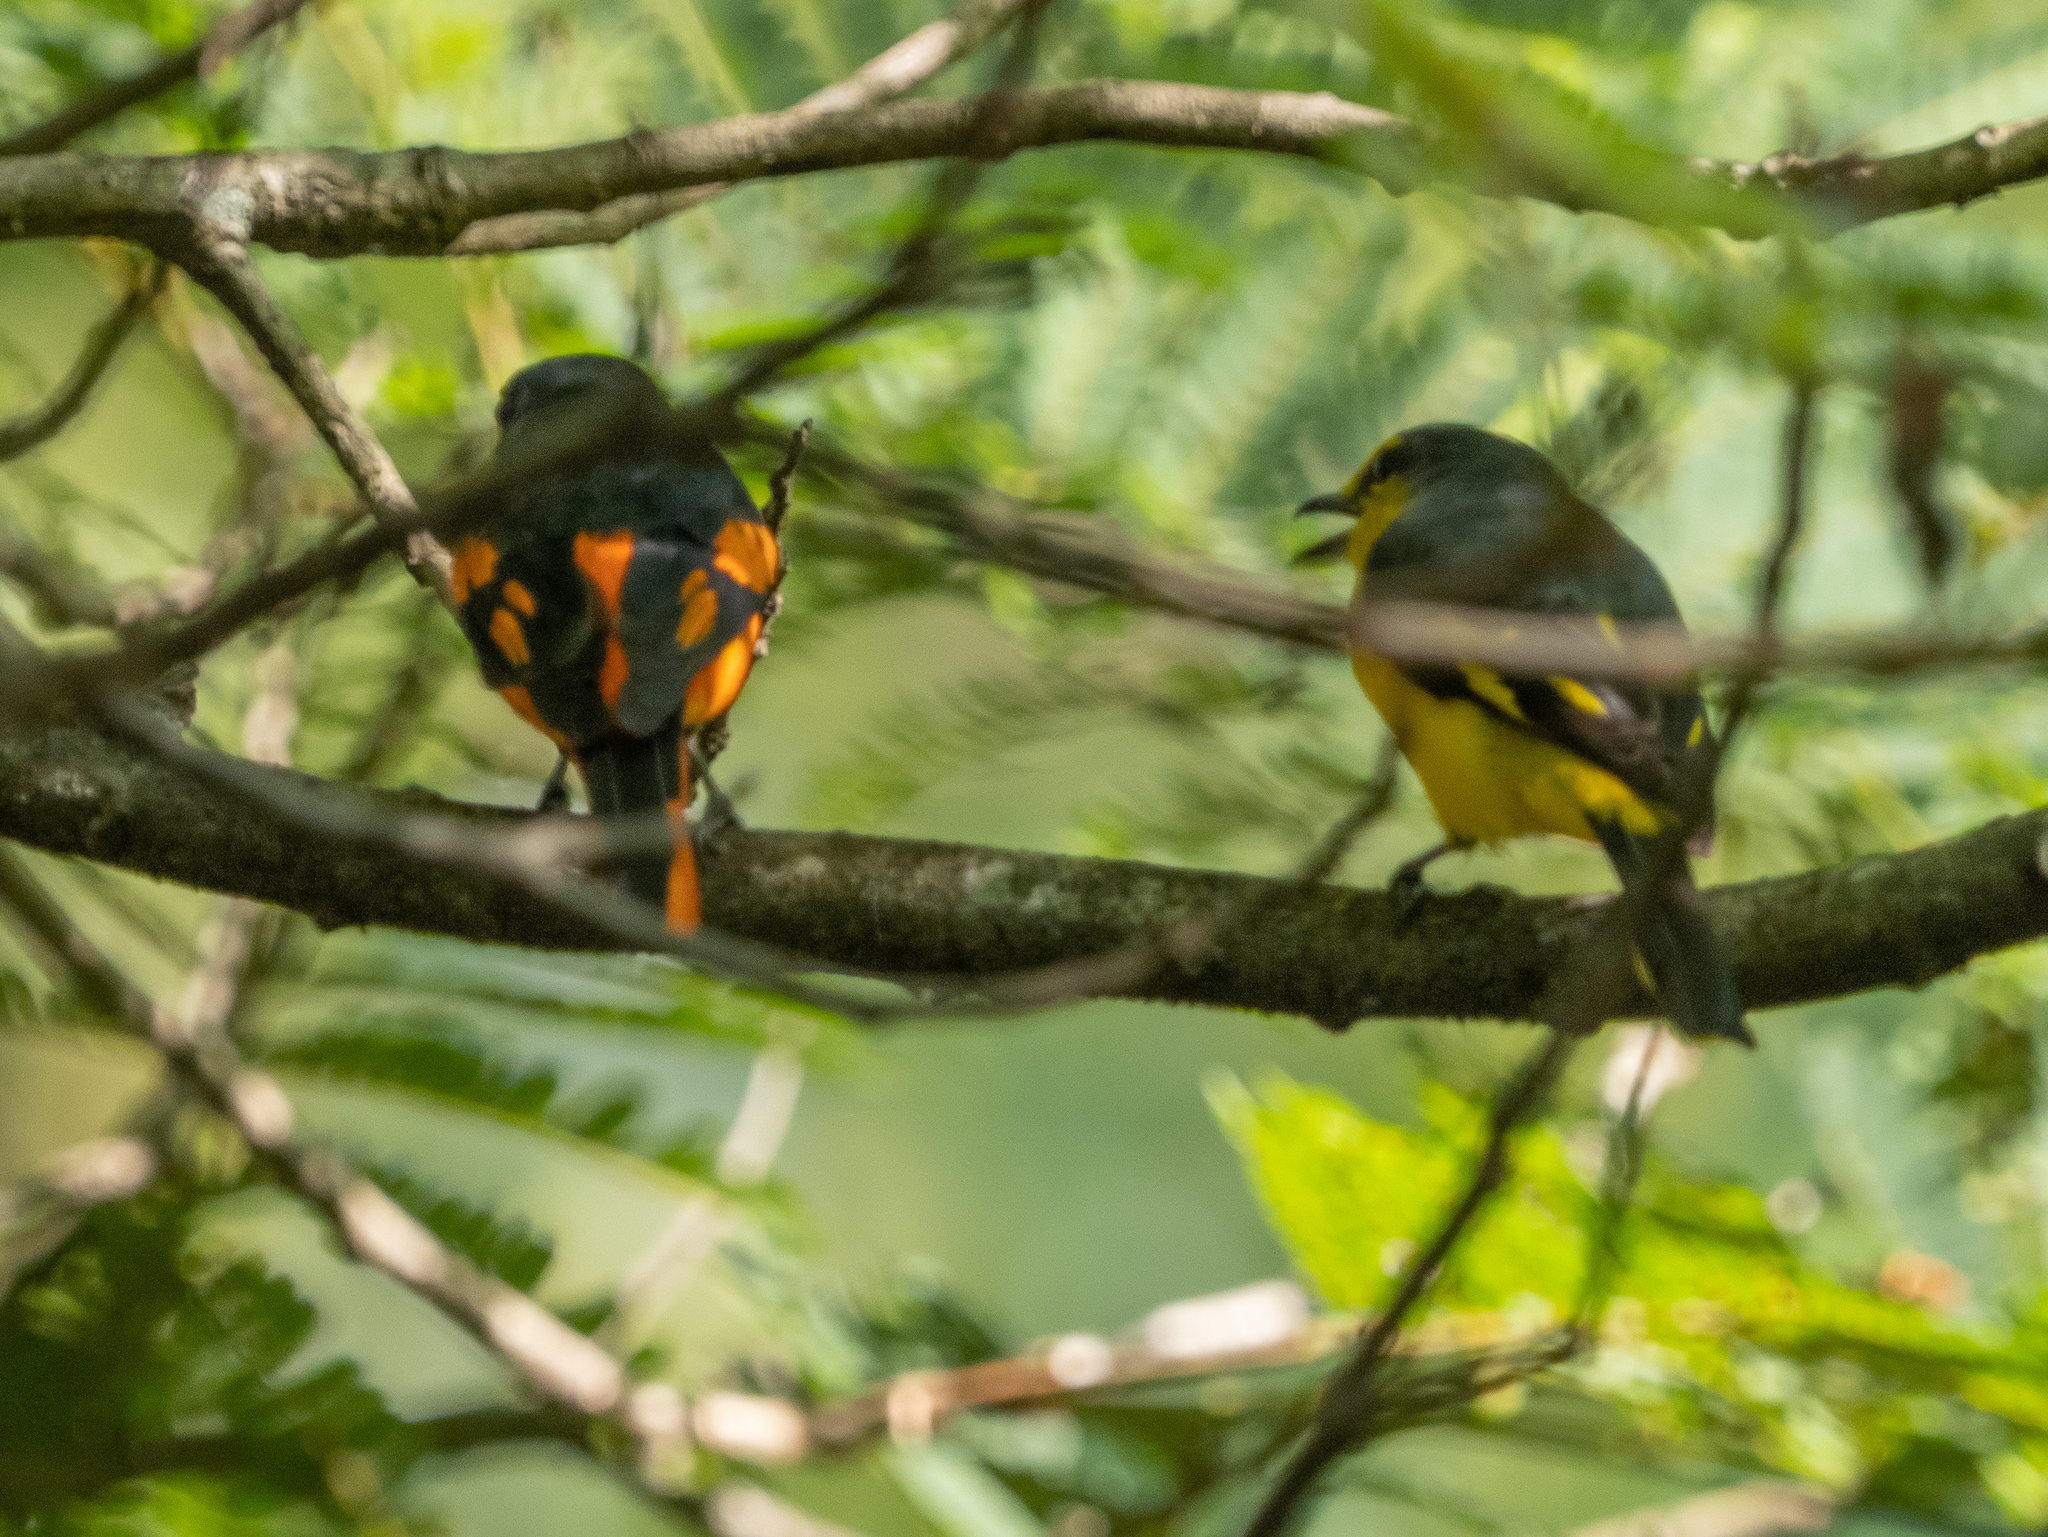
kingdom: Animalia
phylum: Chordata
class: Aves
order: Passeriformes
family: Campephagidae
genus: Pericrocotus
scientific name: Pericrocotus flammeus
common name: Orange minivet
